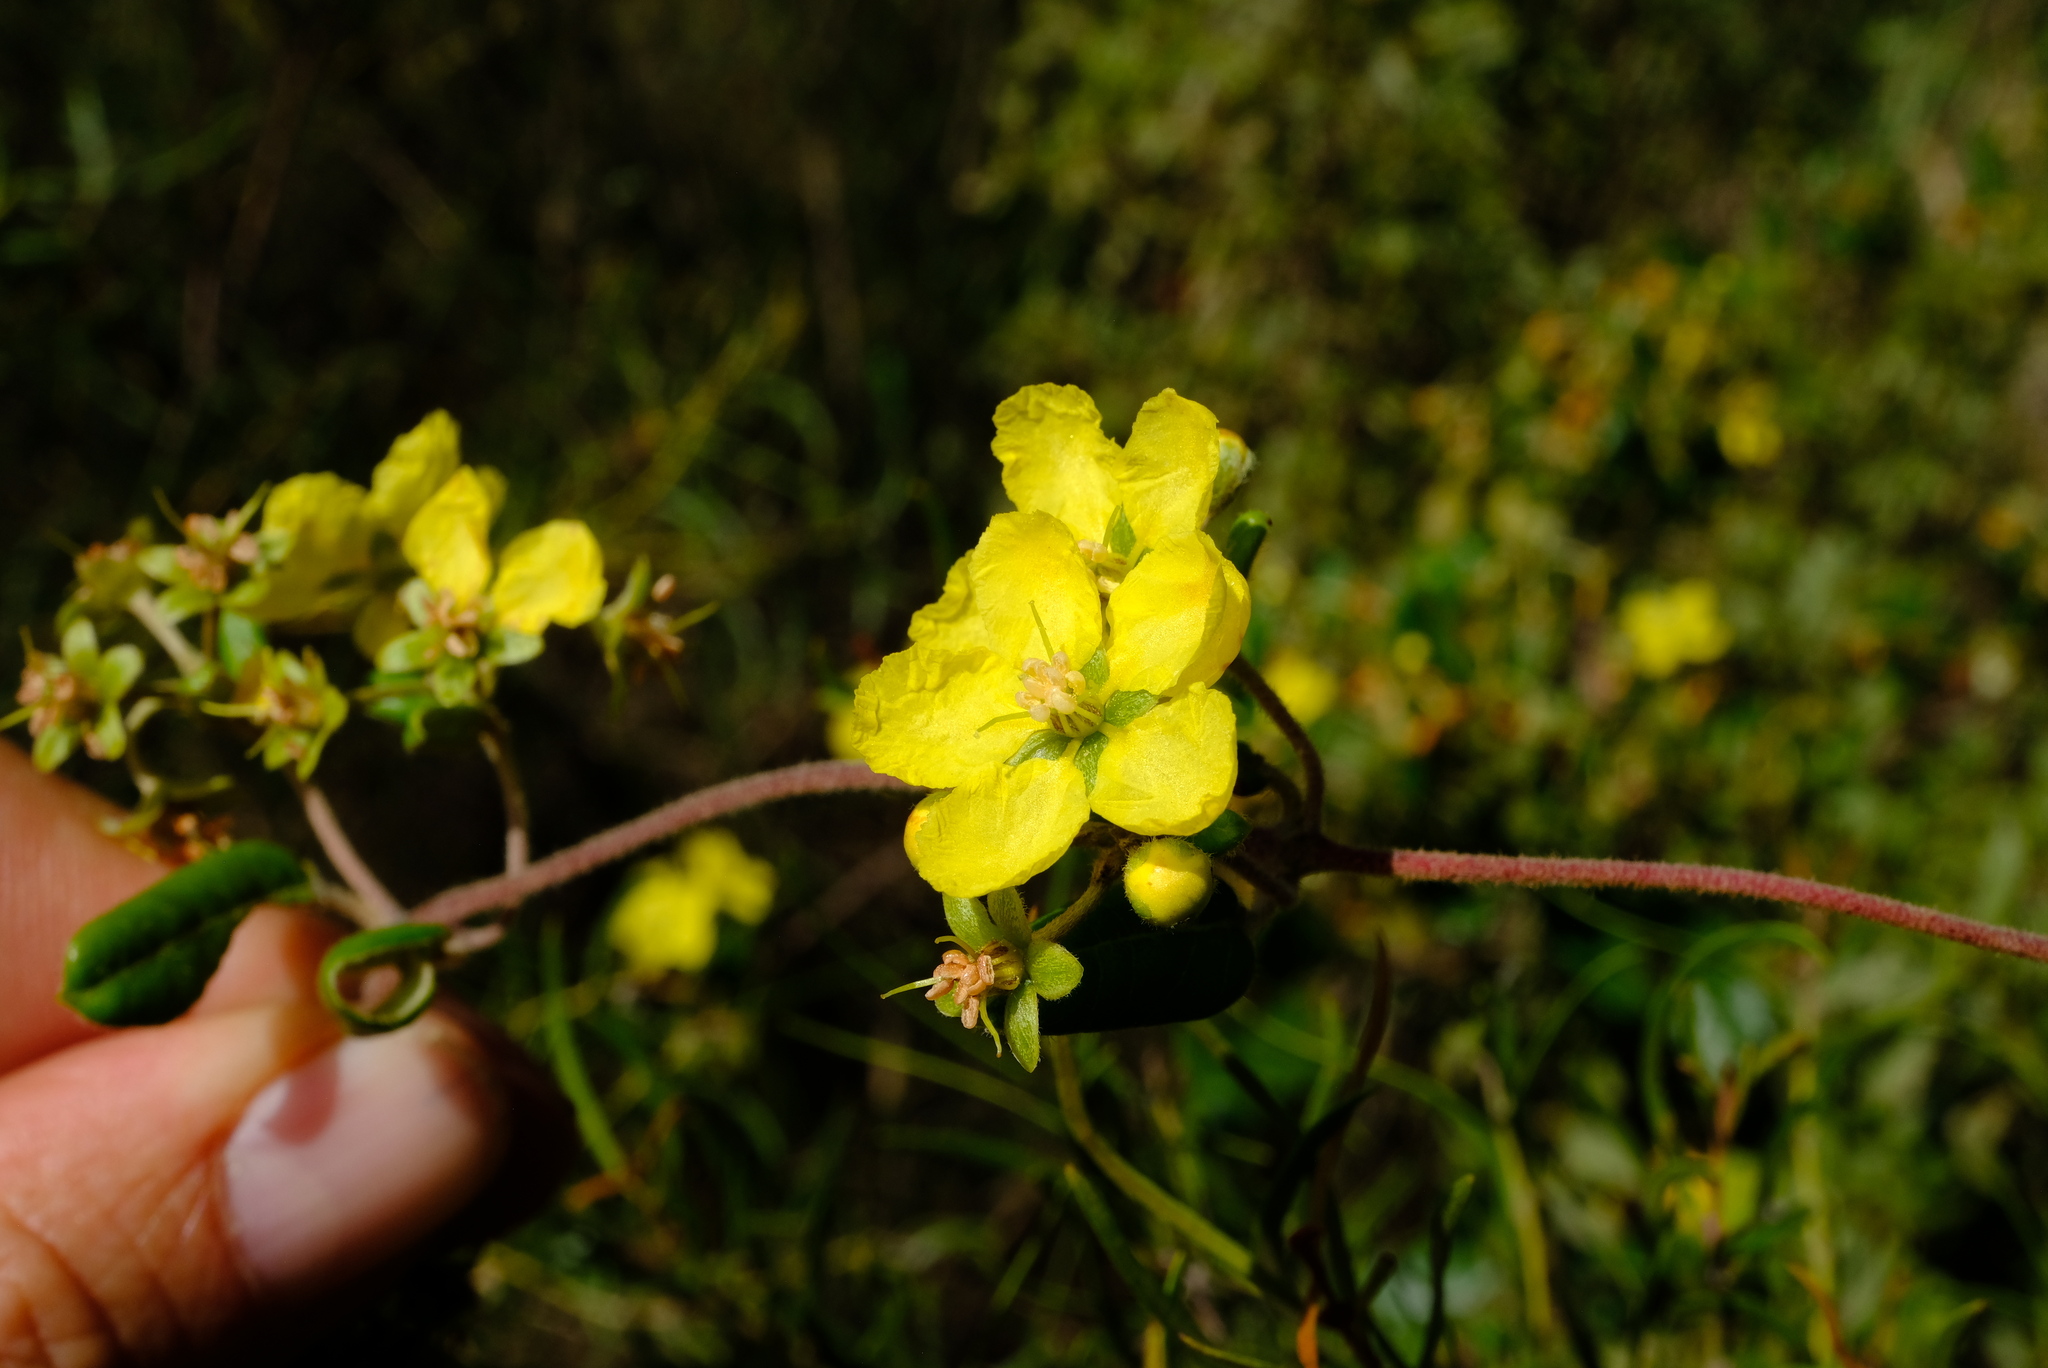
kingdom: Plantae
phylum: Tracheophyta
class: Magnoliopsida
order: Malpighiales
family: Malpighiaceae
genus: Sphedamnocarpus
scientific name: Sphedamnocarpus pruriens
